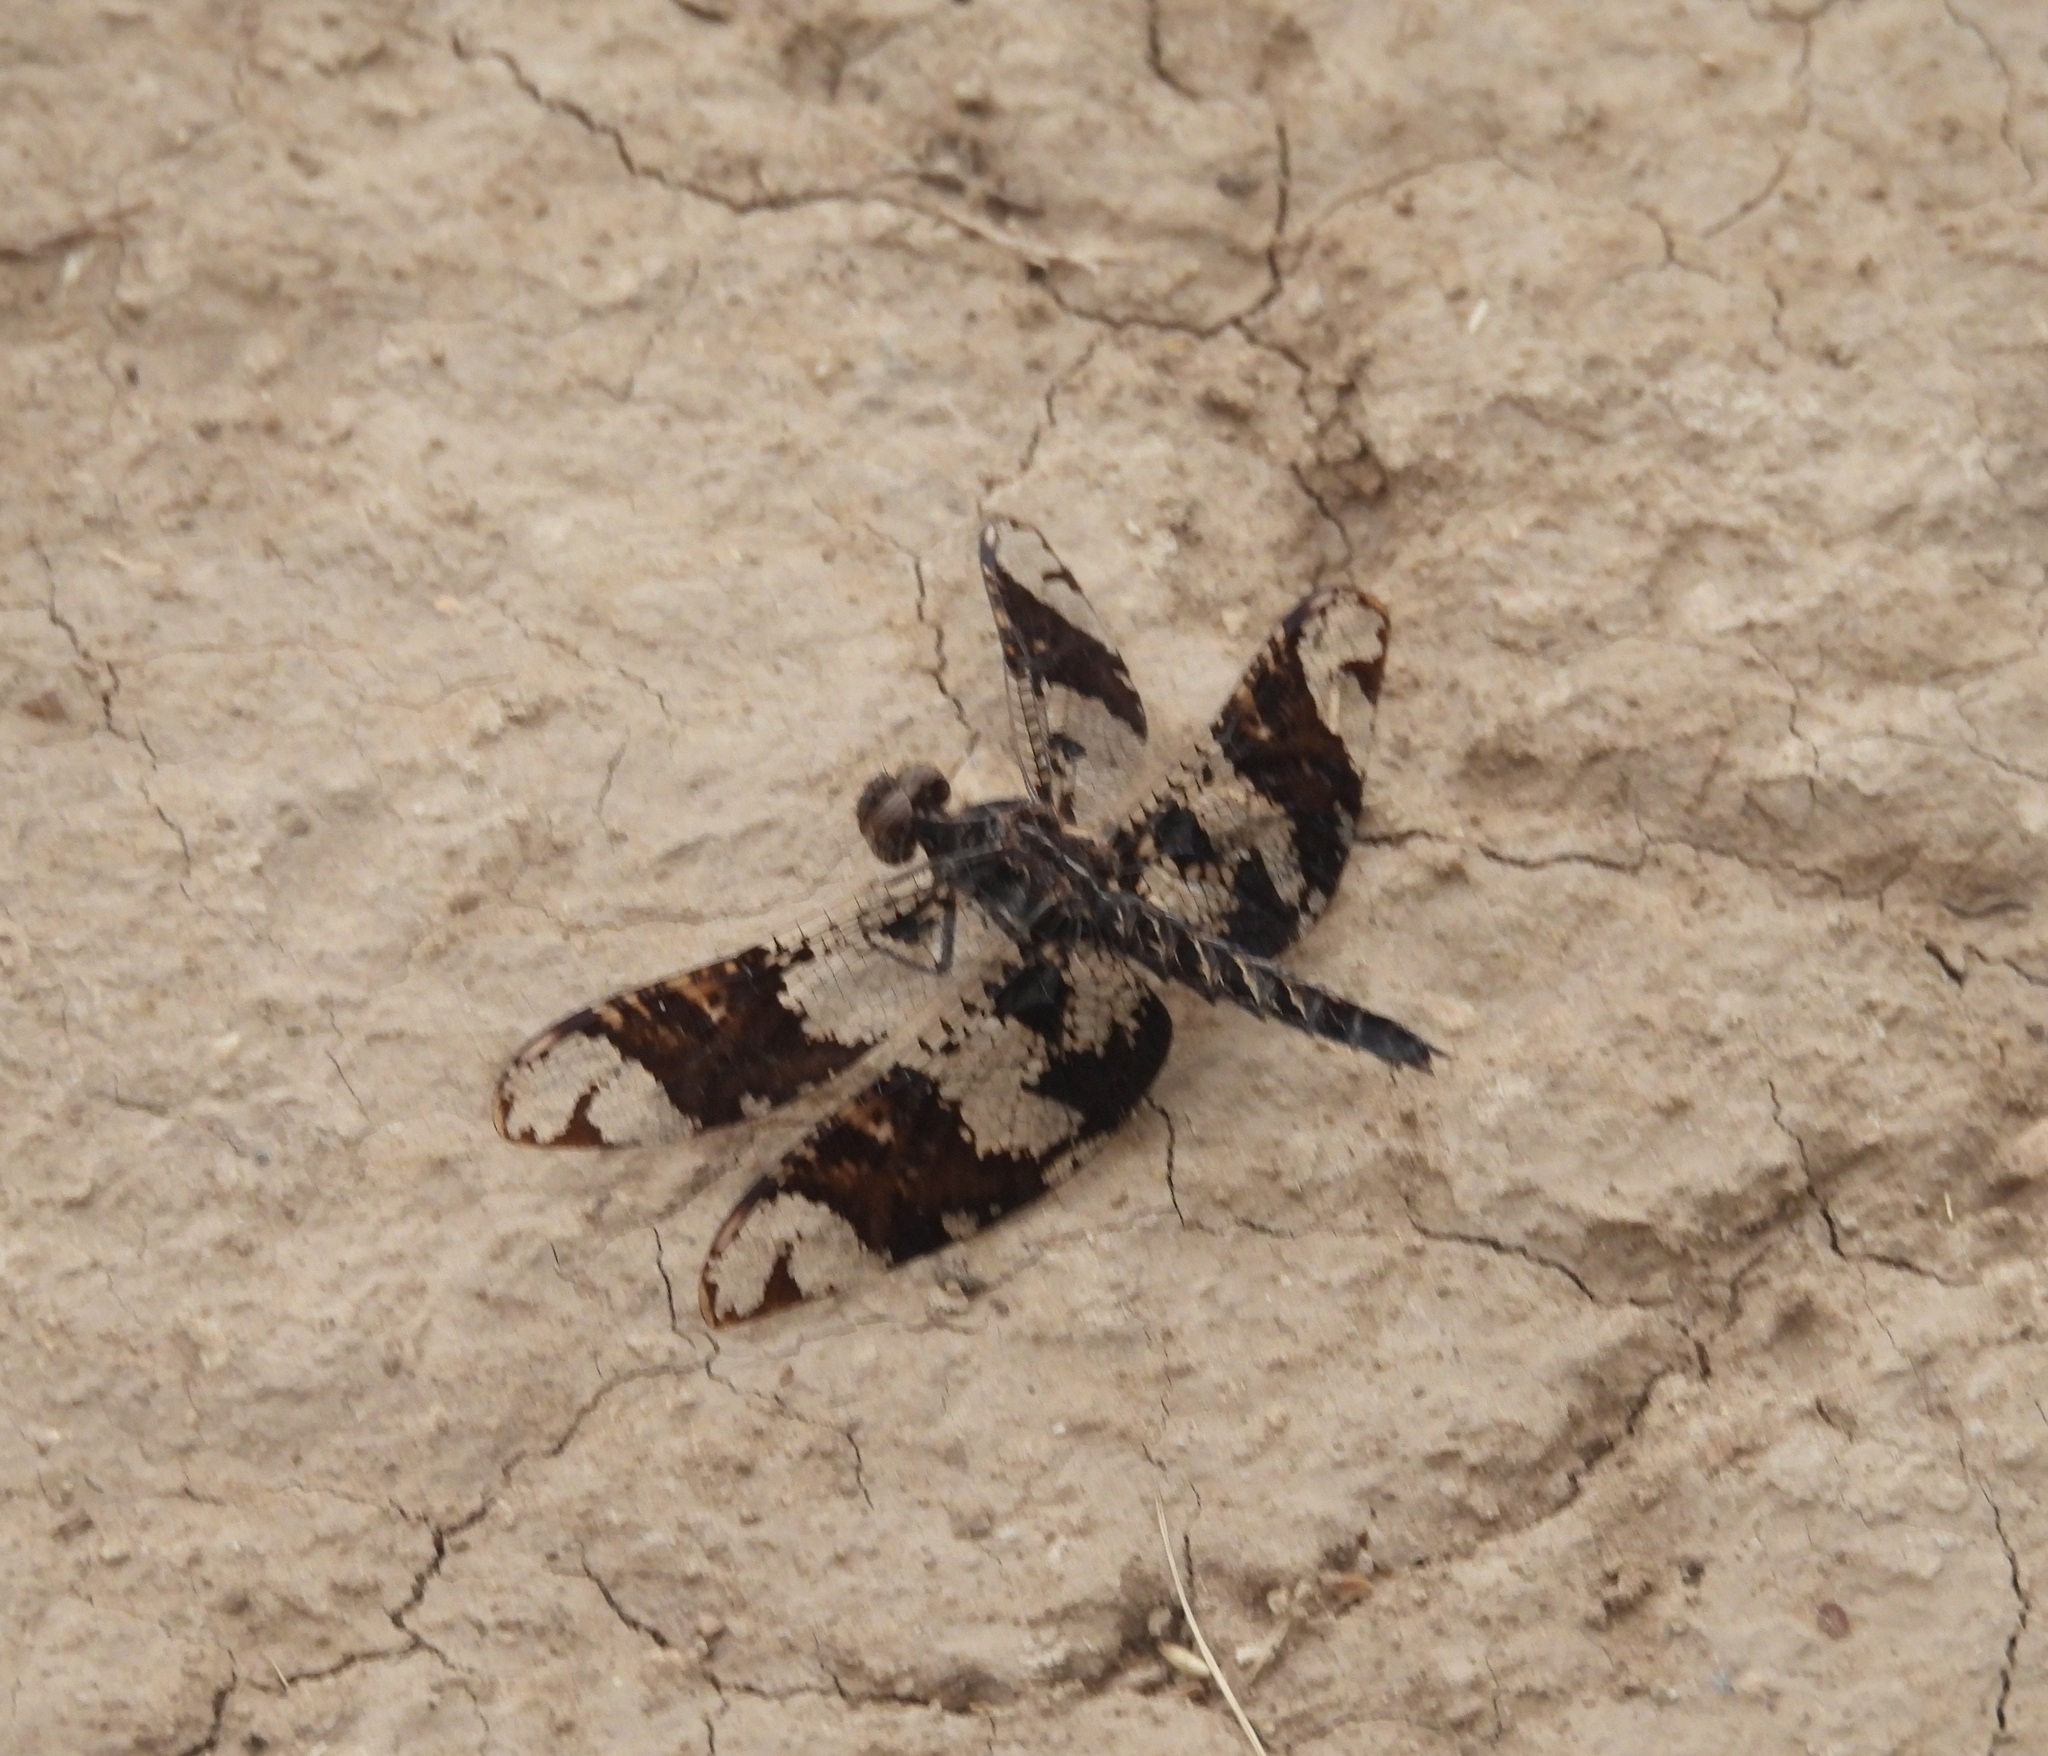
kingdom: Animalia
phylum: Arthropoda
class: Insecta
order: Odonata
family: Libellulidae
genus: Pseudoleon
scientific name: Pseudoleon superbus
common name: Filigree skimmer
